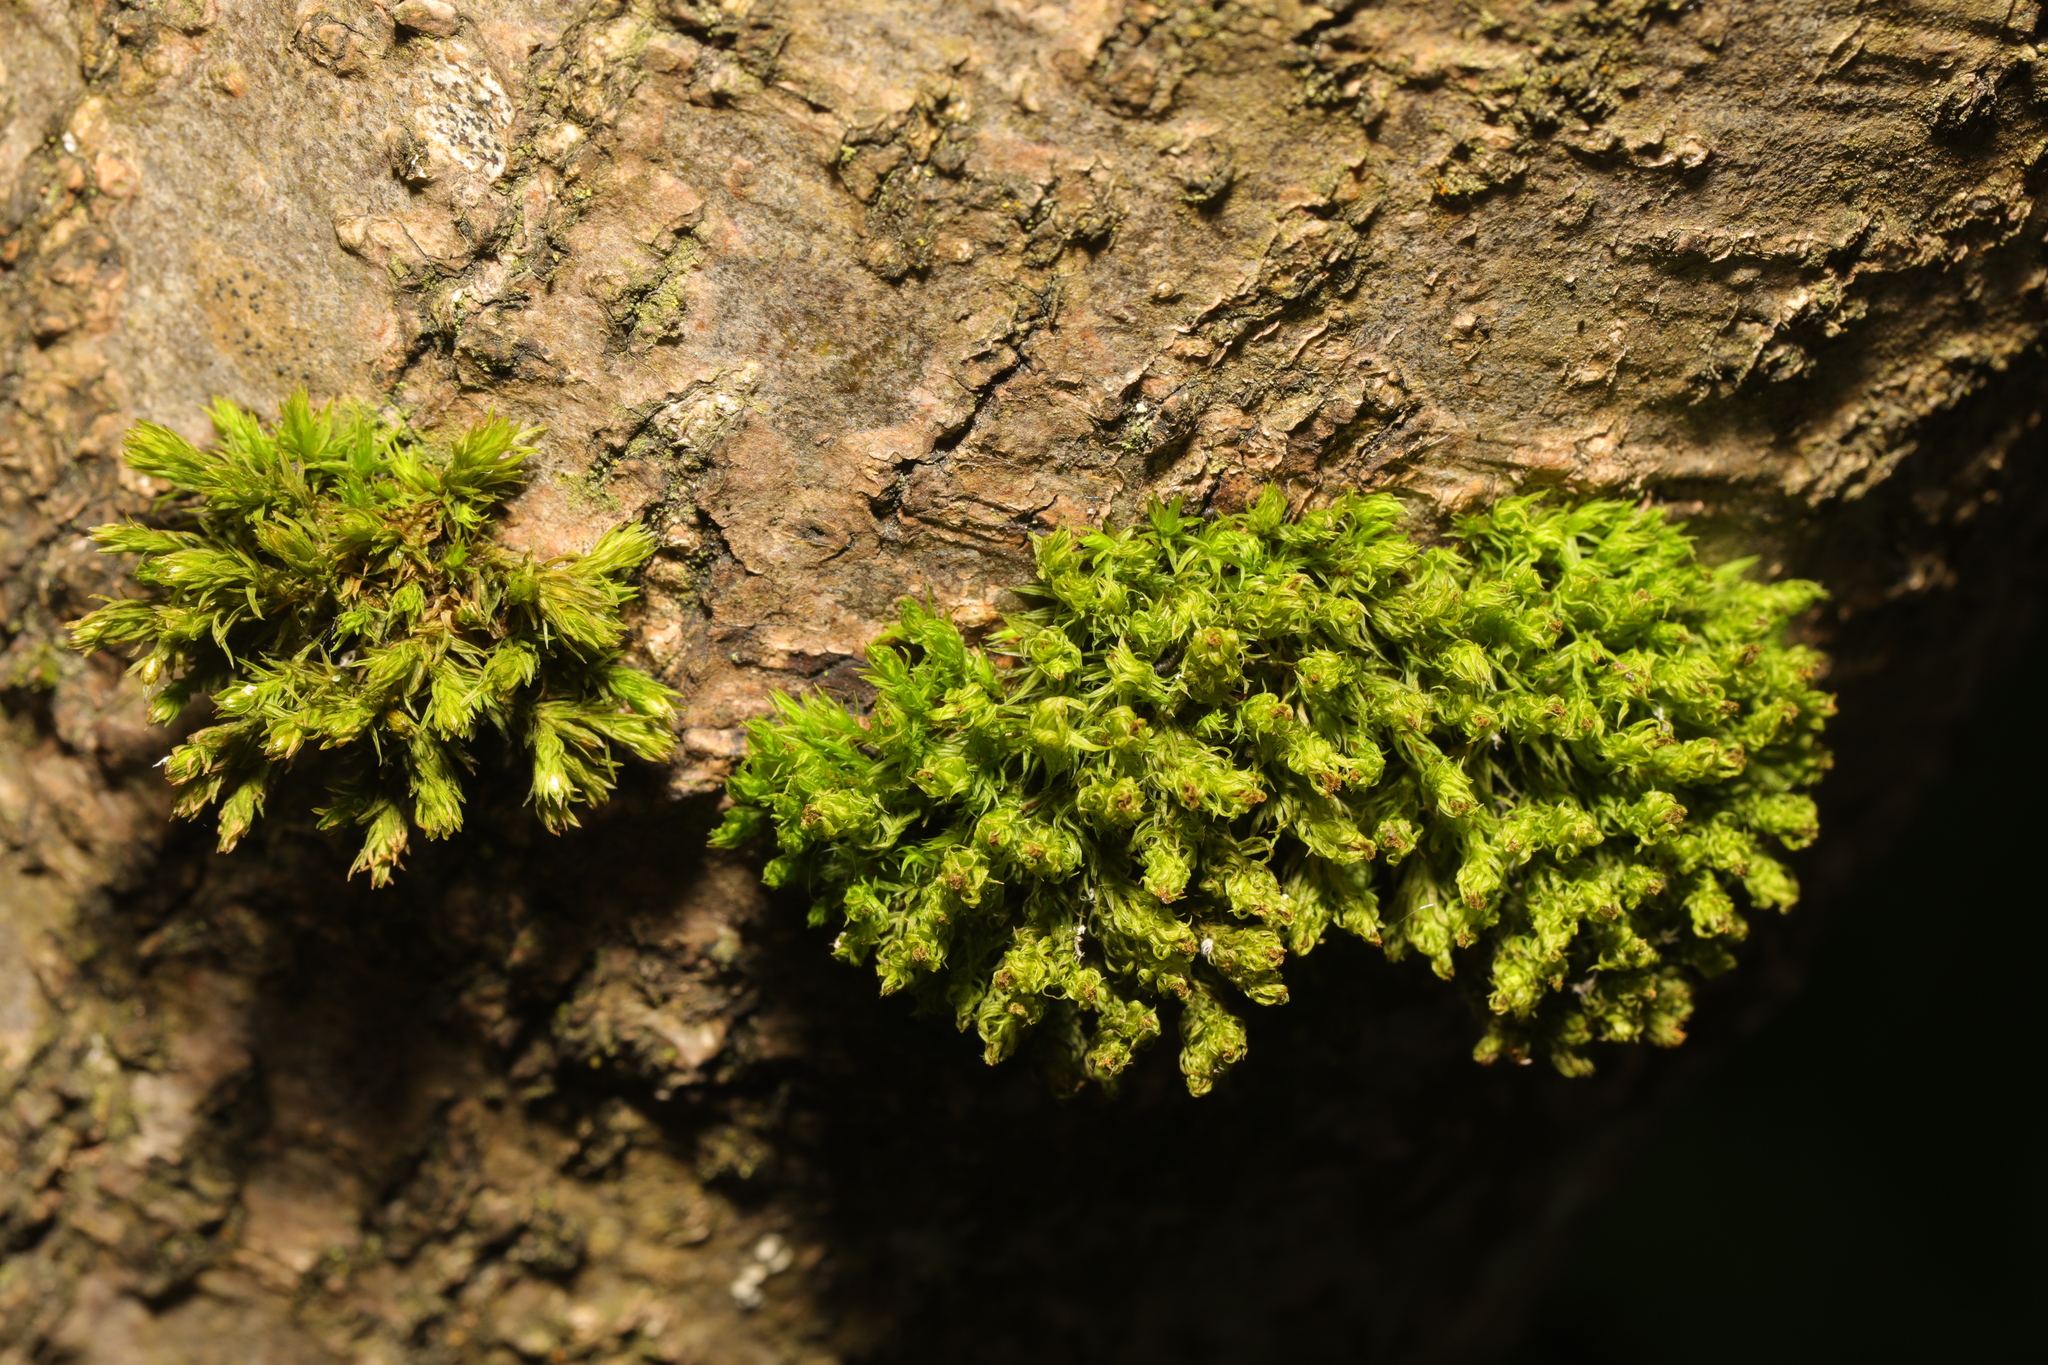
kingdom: Plantae
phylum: Bryophyta
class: Bryopsida
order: Orthotrichales
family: Orthotrichaceae
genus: Plenogemma
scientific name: Plenogemma phyllantha
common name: Frizzled pincushion
